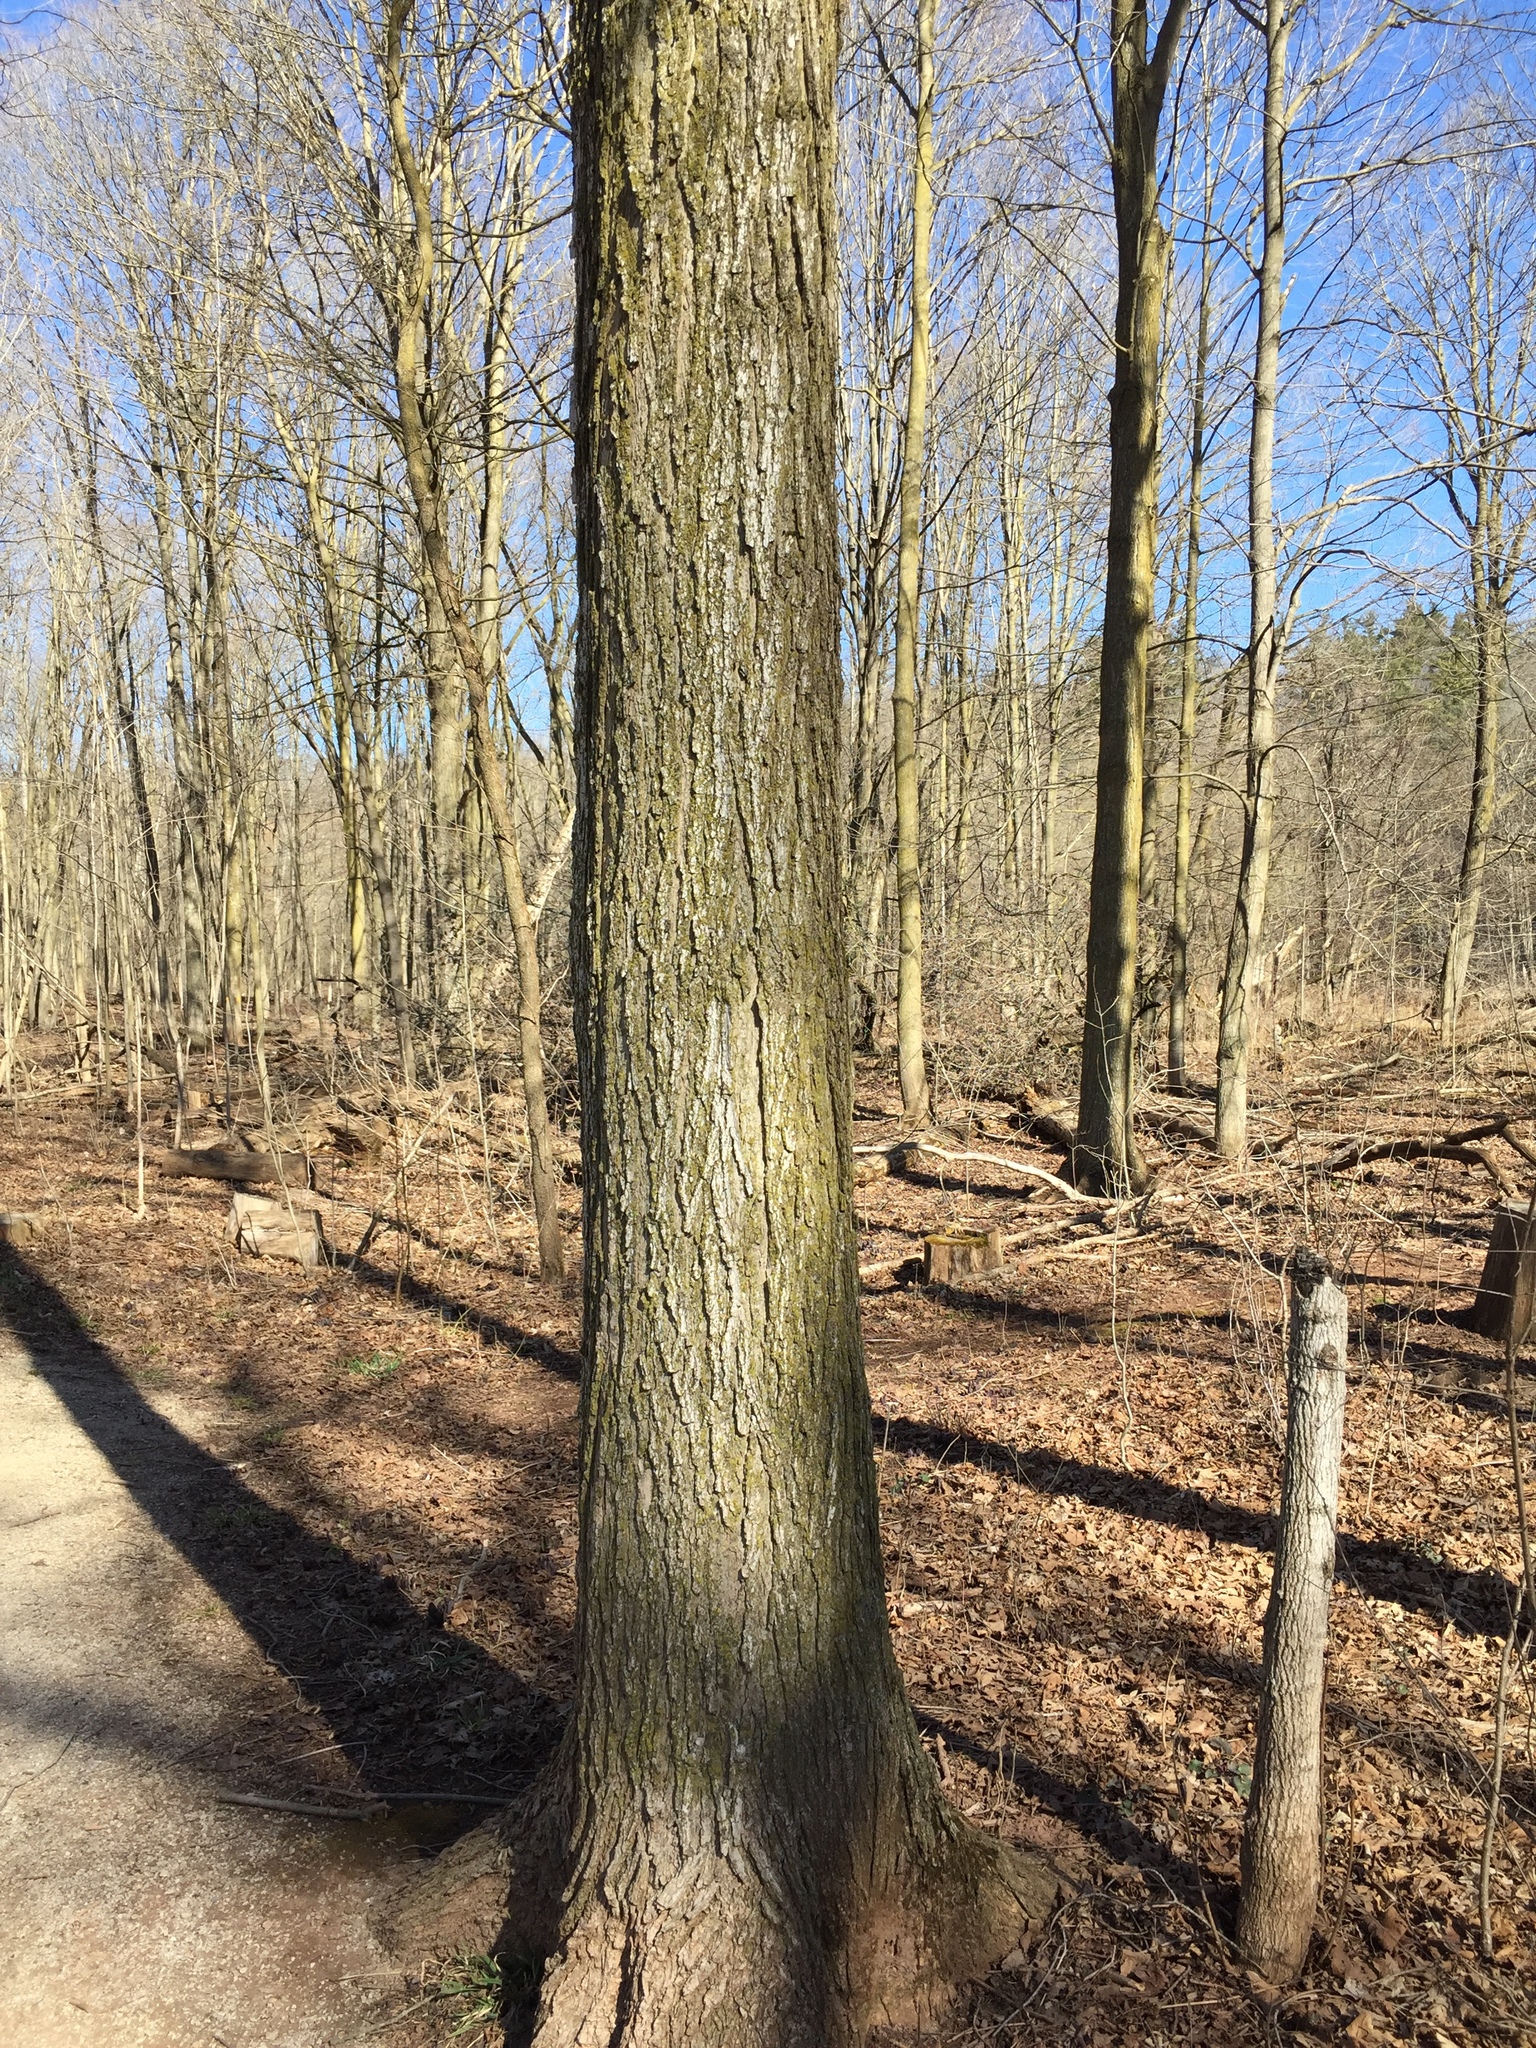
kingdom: Plantae
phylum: Tracheophyta
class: Magnoliopsida
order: Sapindales
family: Sapindaceae
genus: Acer
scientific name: Acer saccharum
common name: Sugar maple
